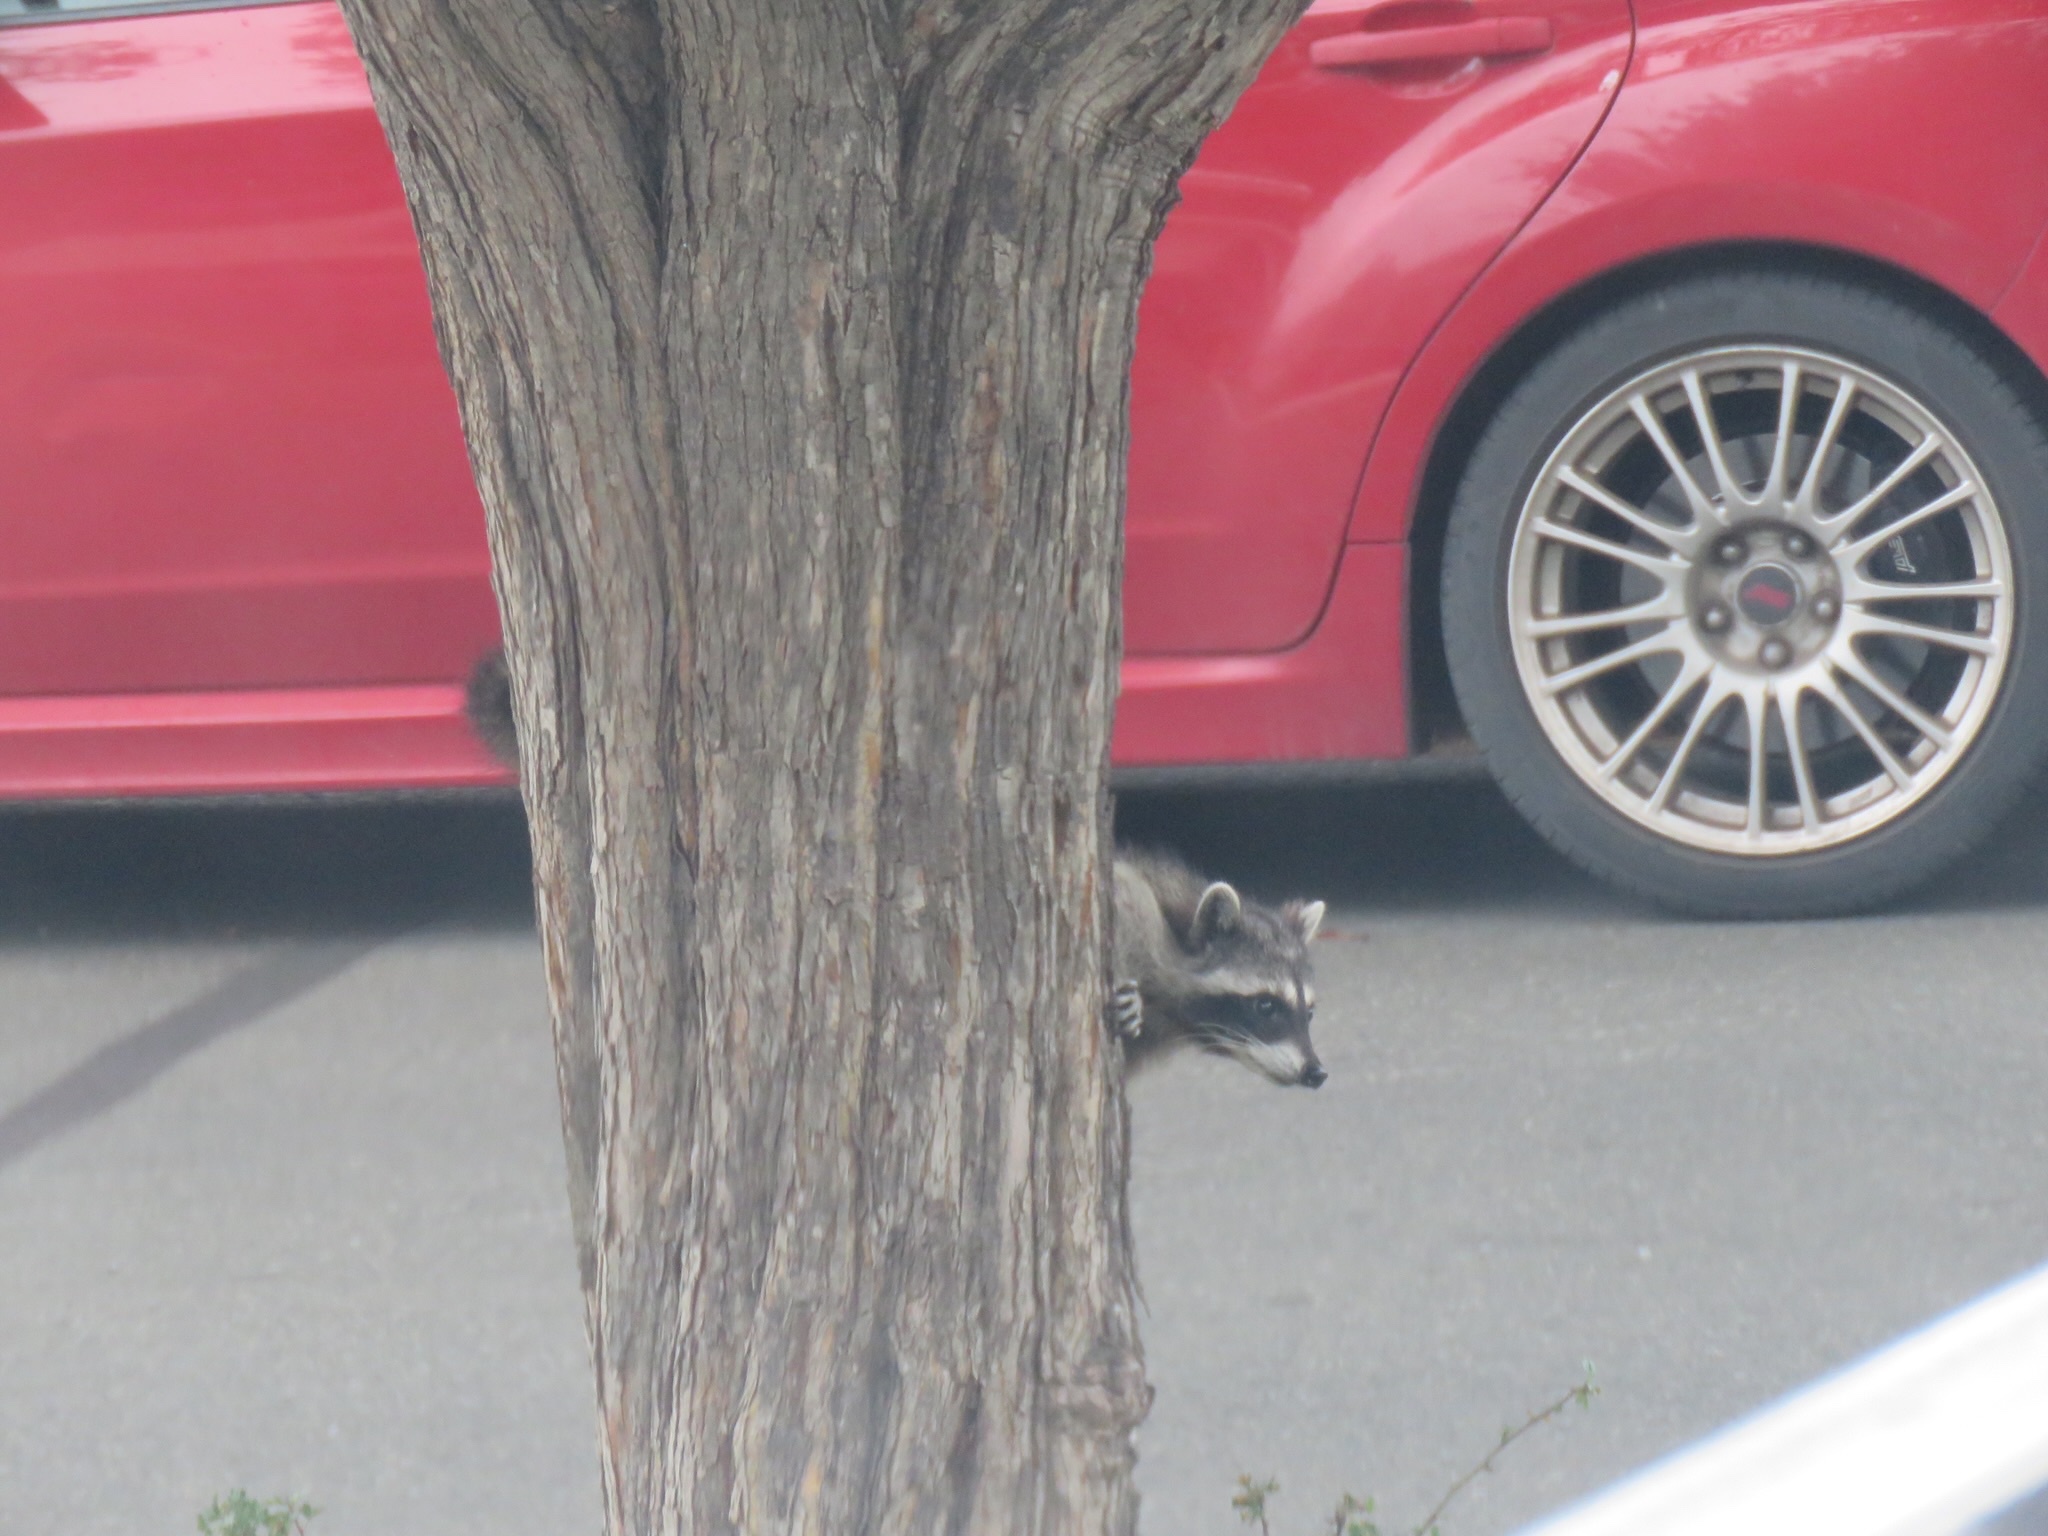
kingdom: Animalia
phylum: Chordata
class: Mammalia
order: Carnivora
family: Procyonidae
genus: Procyon
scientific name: Procyon lotor
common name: Raccoon
